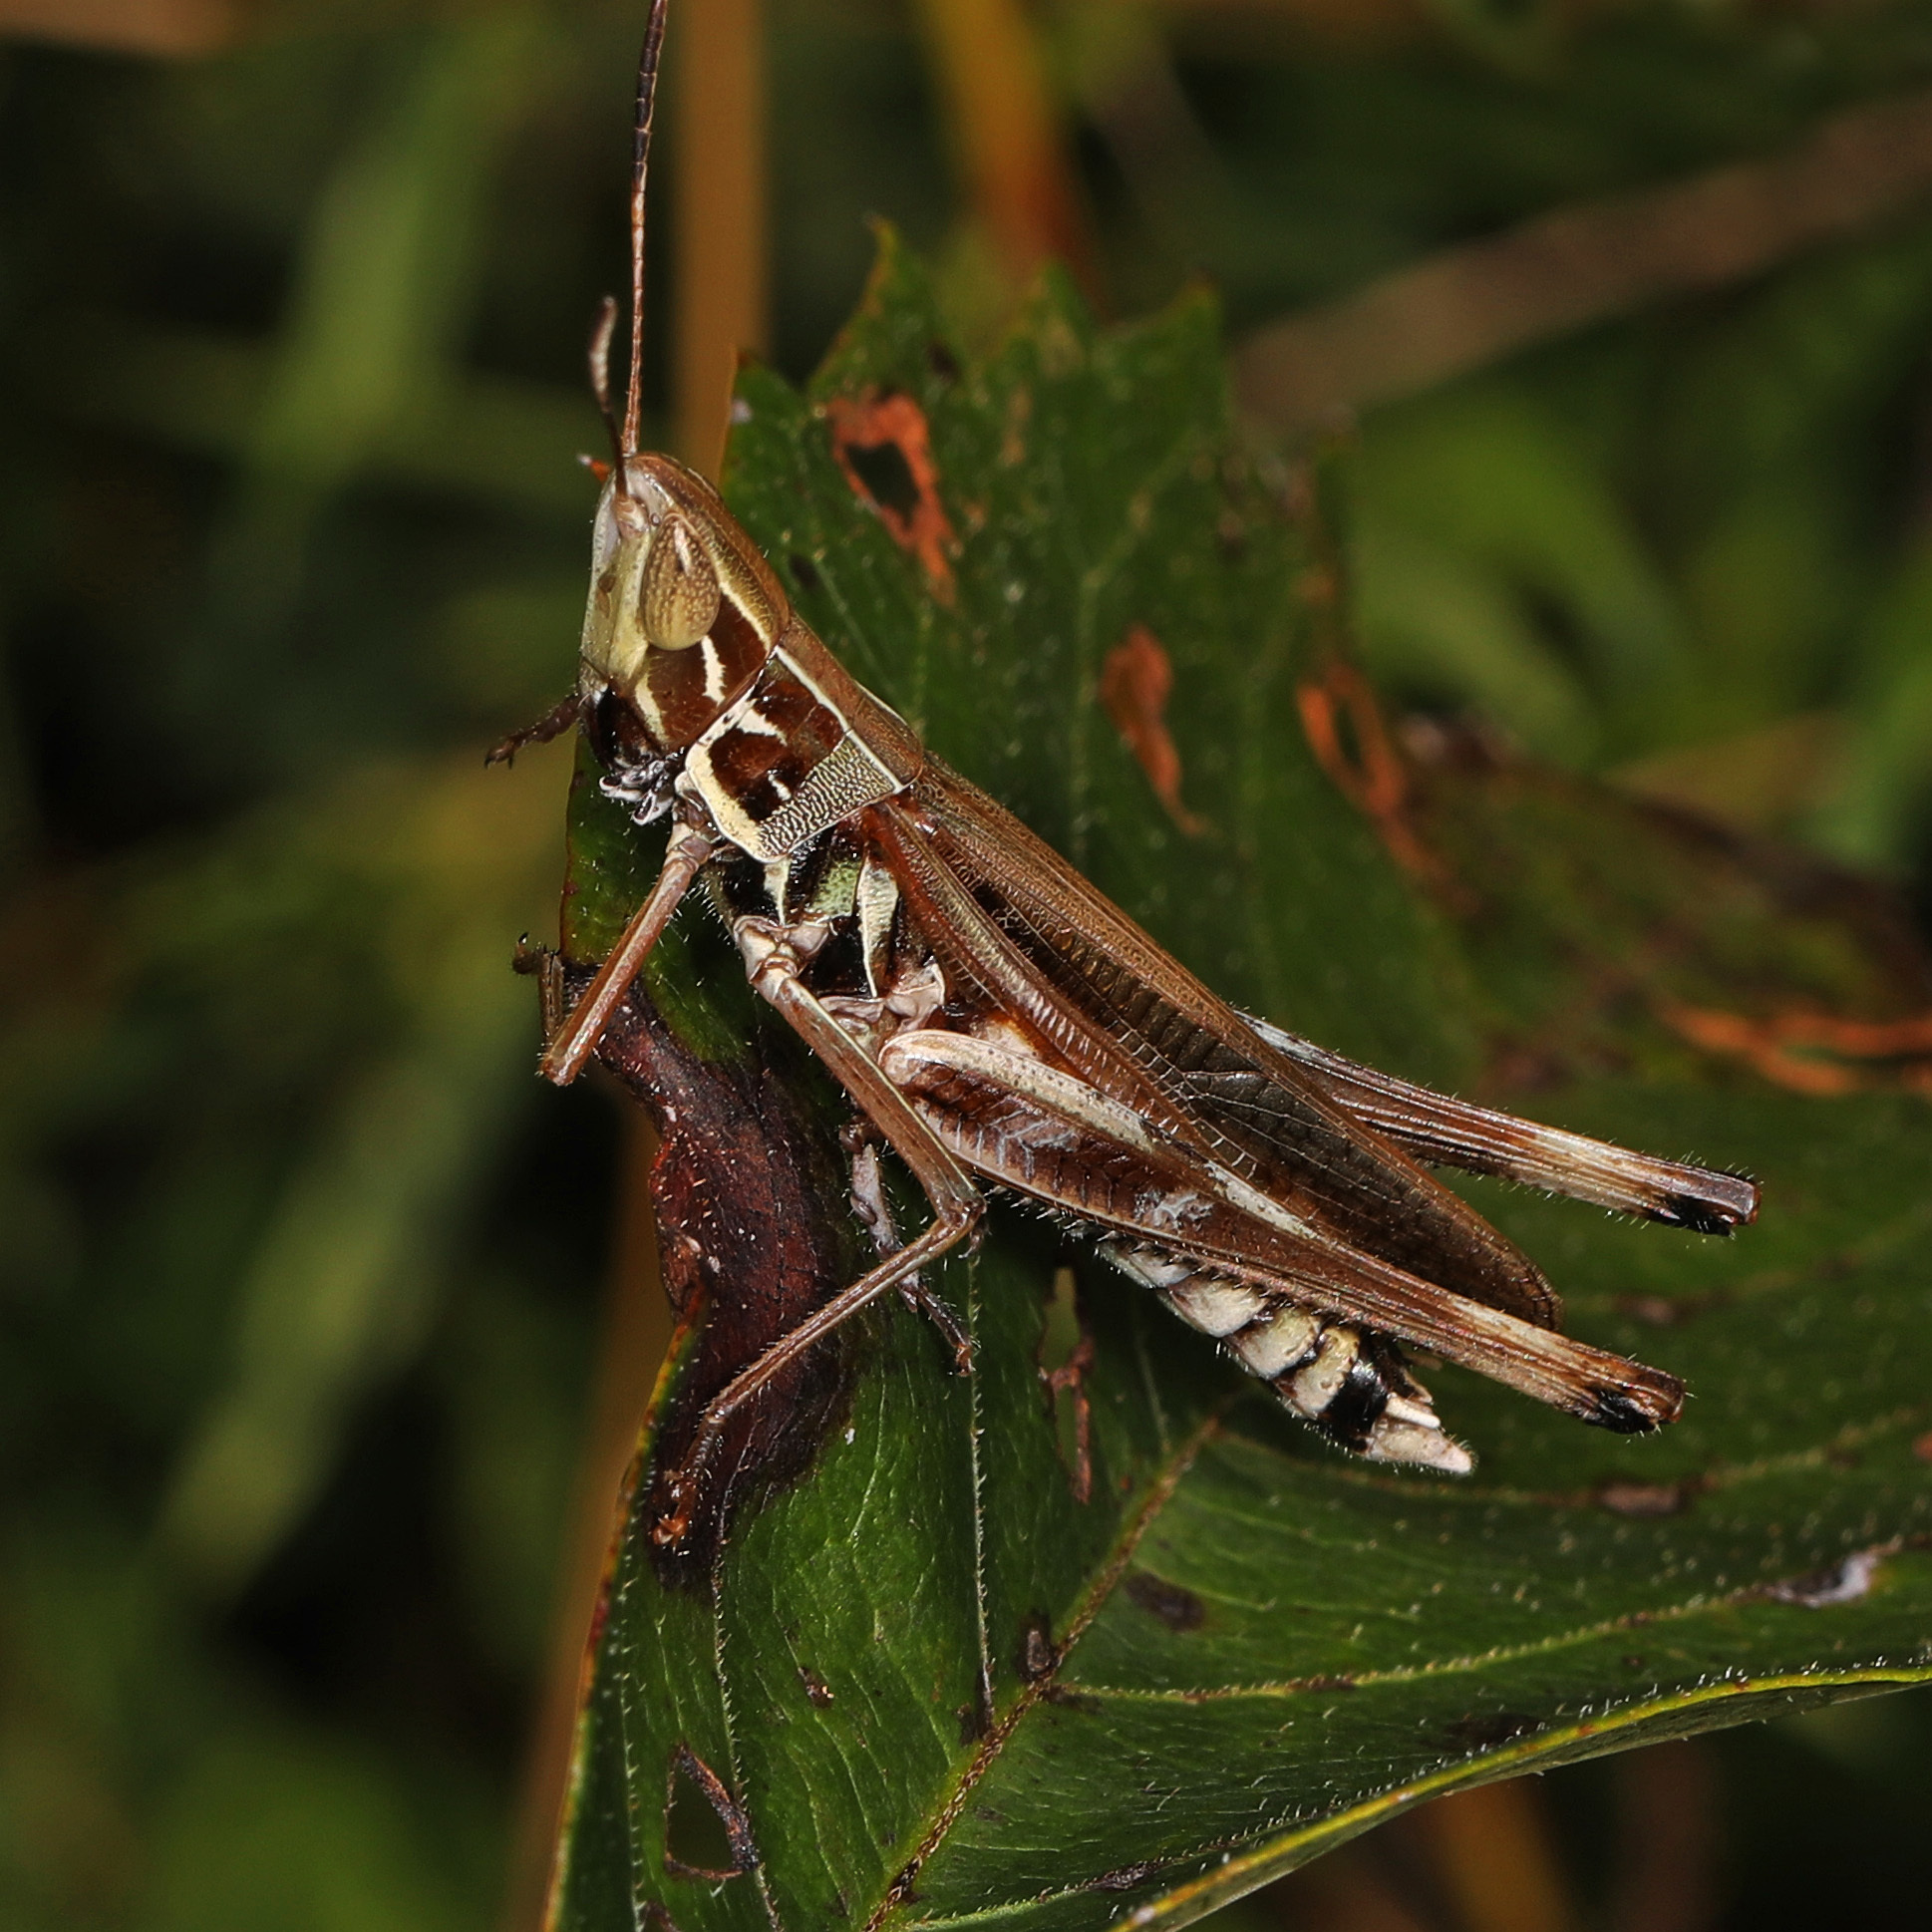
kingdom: Animalia
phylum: Arthropoda
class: Insecta
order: Orthoptera
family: Acrididae
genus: Syrbula
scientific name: Syrbula admirabilis
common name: Handsome grasshopper
